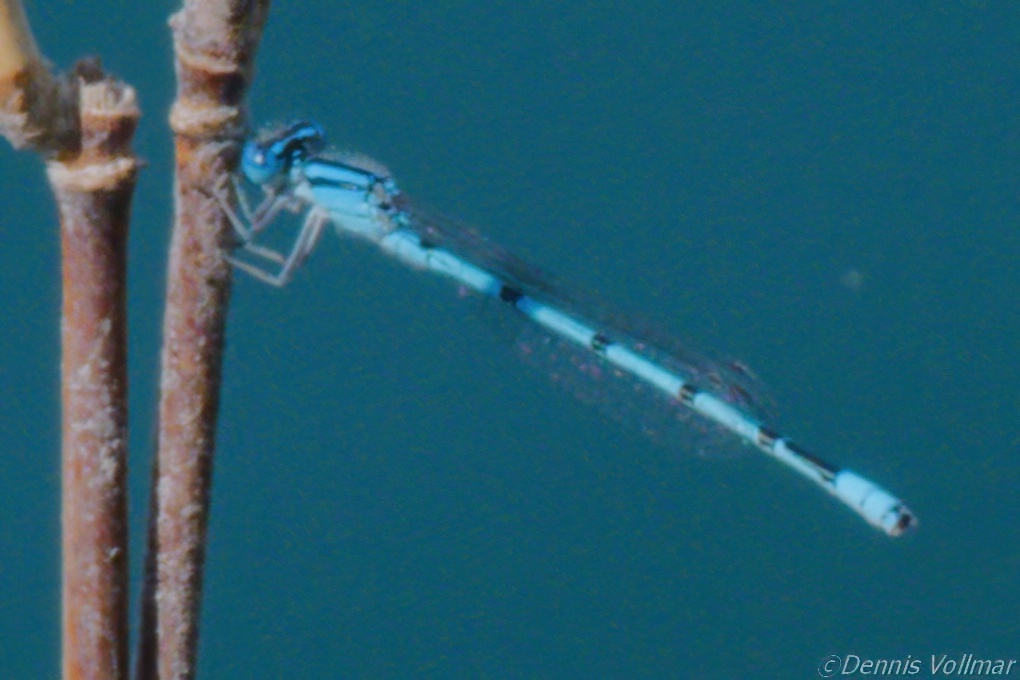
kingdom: Animalia
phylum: Arthropoda
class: Insecta
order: Odonata
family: Coenagrionidae
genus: Enallagma
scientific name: Enallagma doubledayi
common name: Atlantic bluet
